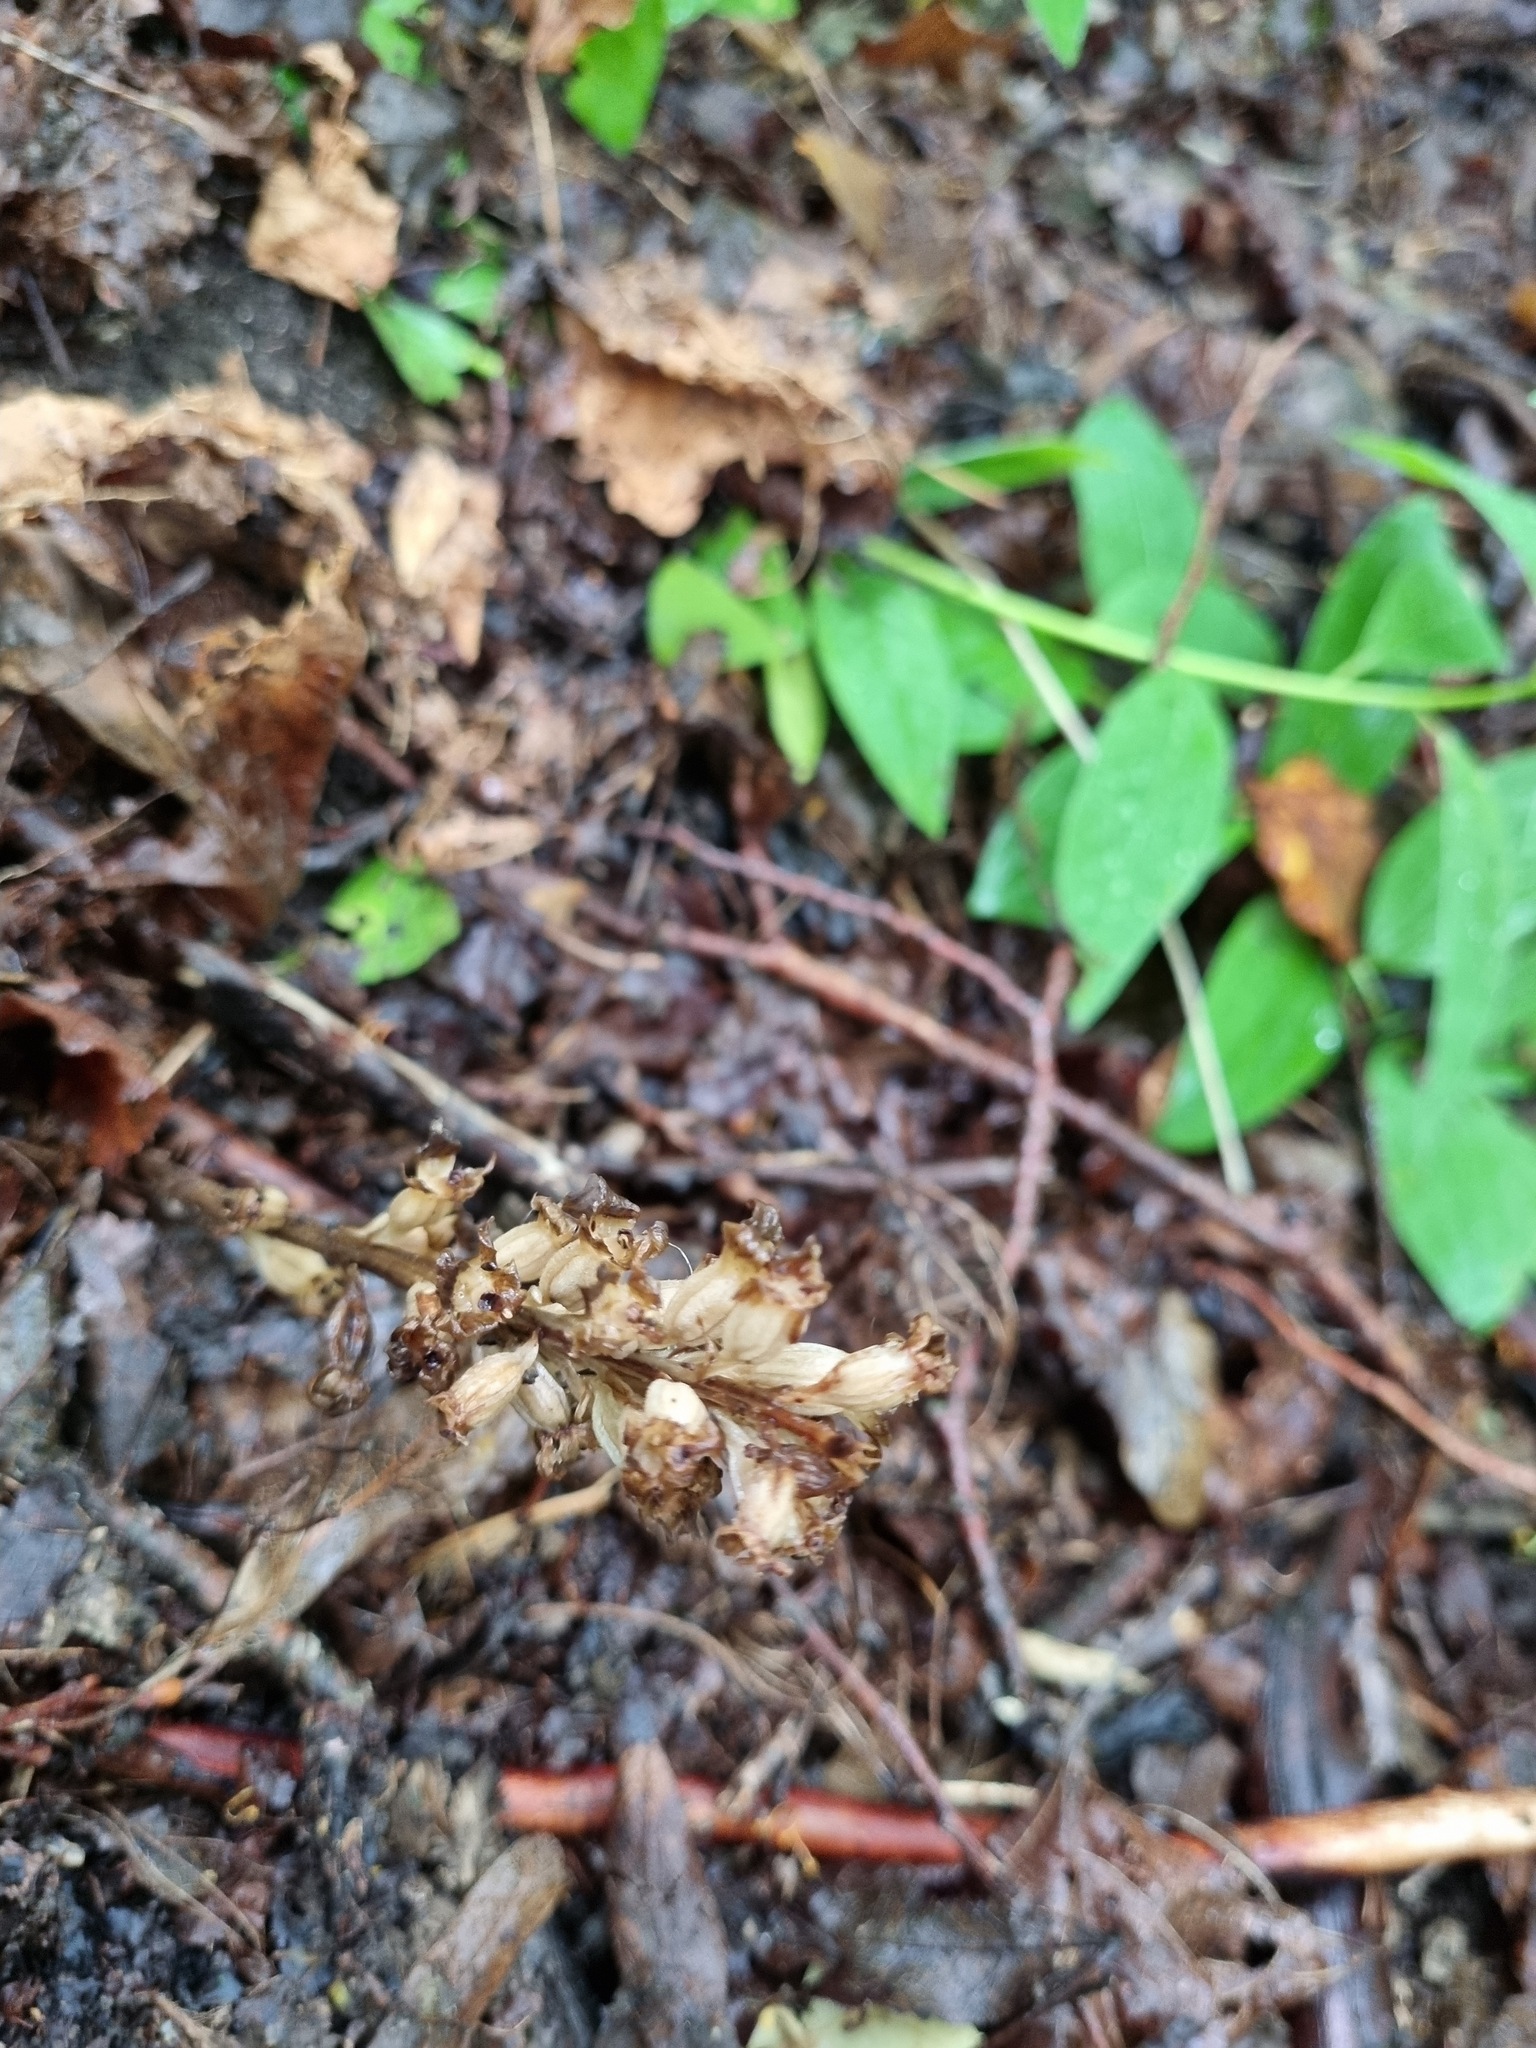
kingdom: Plantae
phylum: Tracheophyta
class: Liliopsida
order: Asparagales
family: Orchidaceae
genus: Neottia
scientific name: Neottia nidus-avis
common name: Bird's-nest orchid
